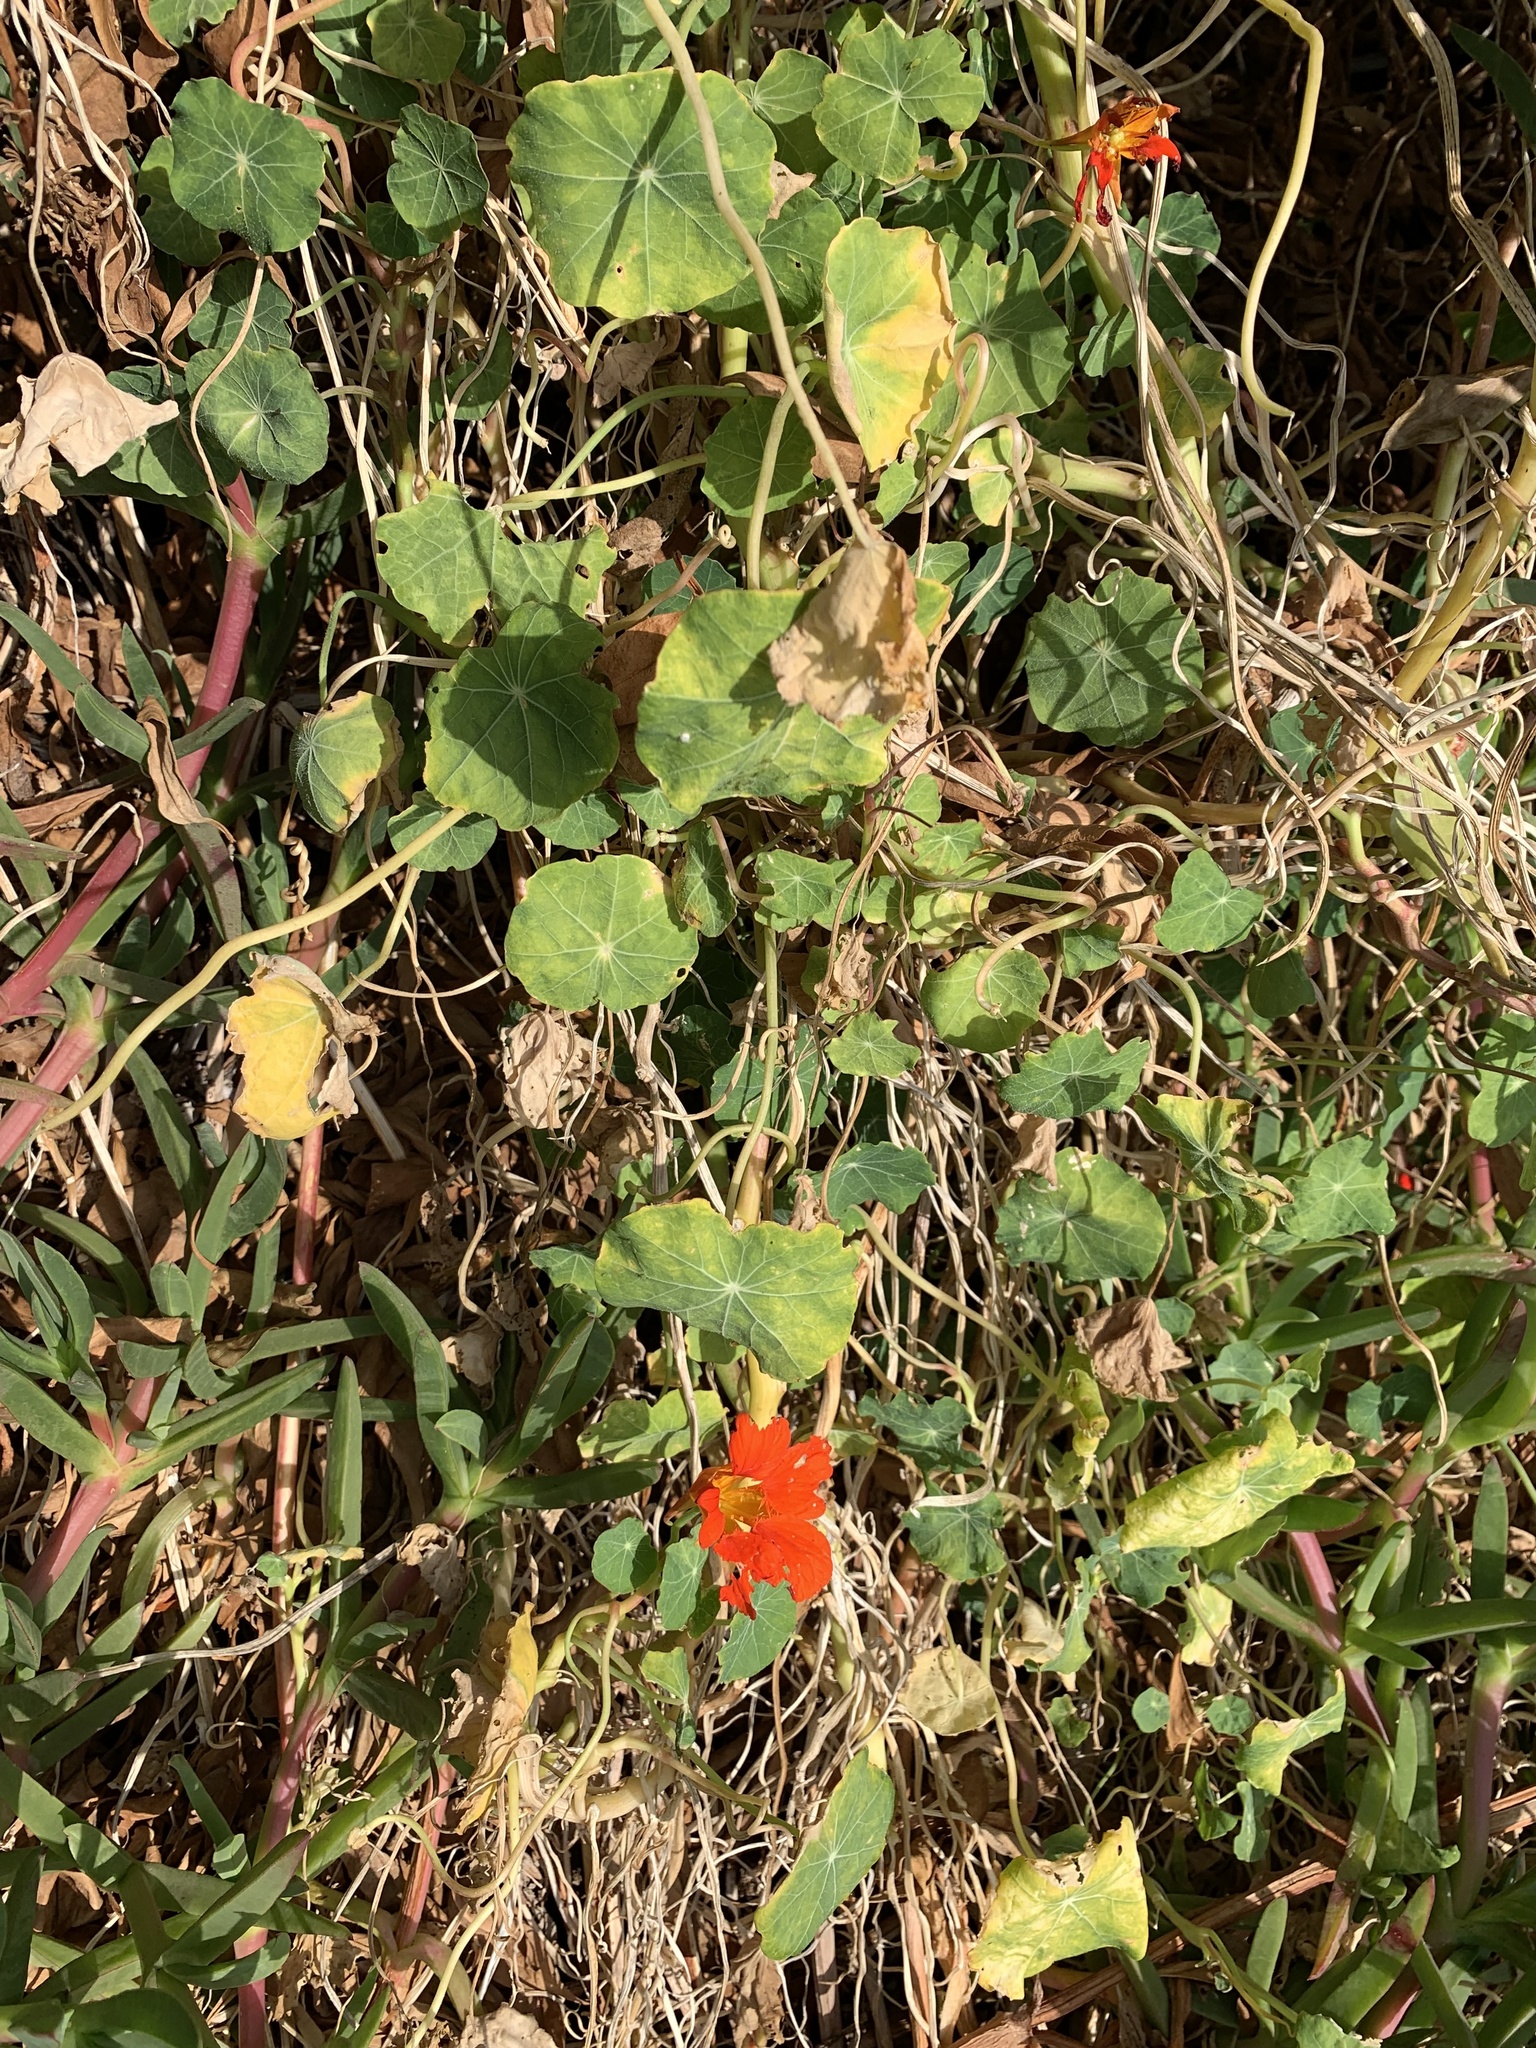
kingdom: Plantae
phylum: Tracheophyta
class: Magnoliopsida
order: Brassicales
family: Tropaeolaceae
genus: Tropaeolum
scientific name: Tropaeolum majus
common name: Nasturtium
